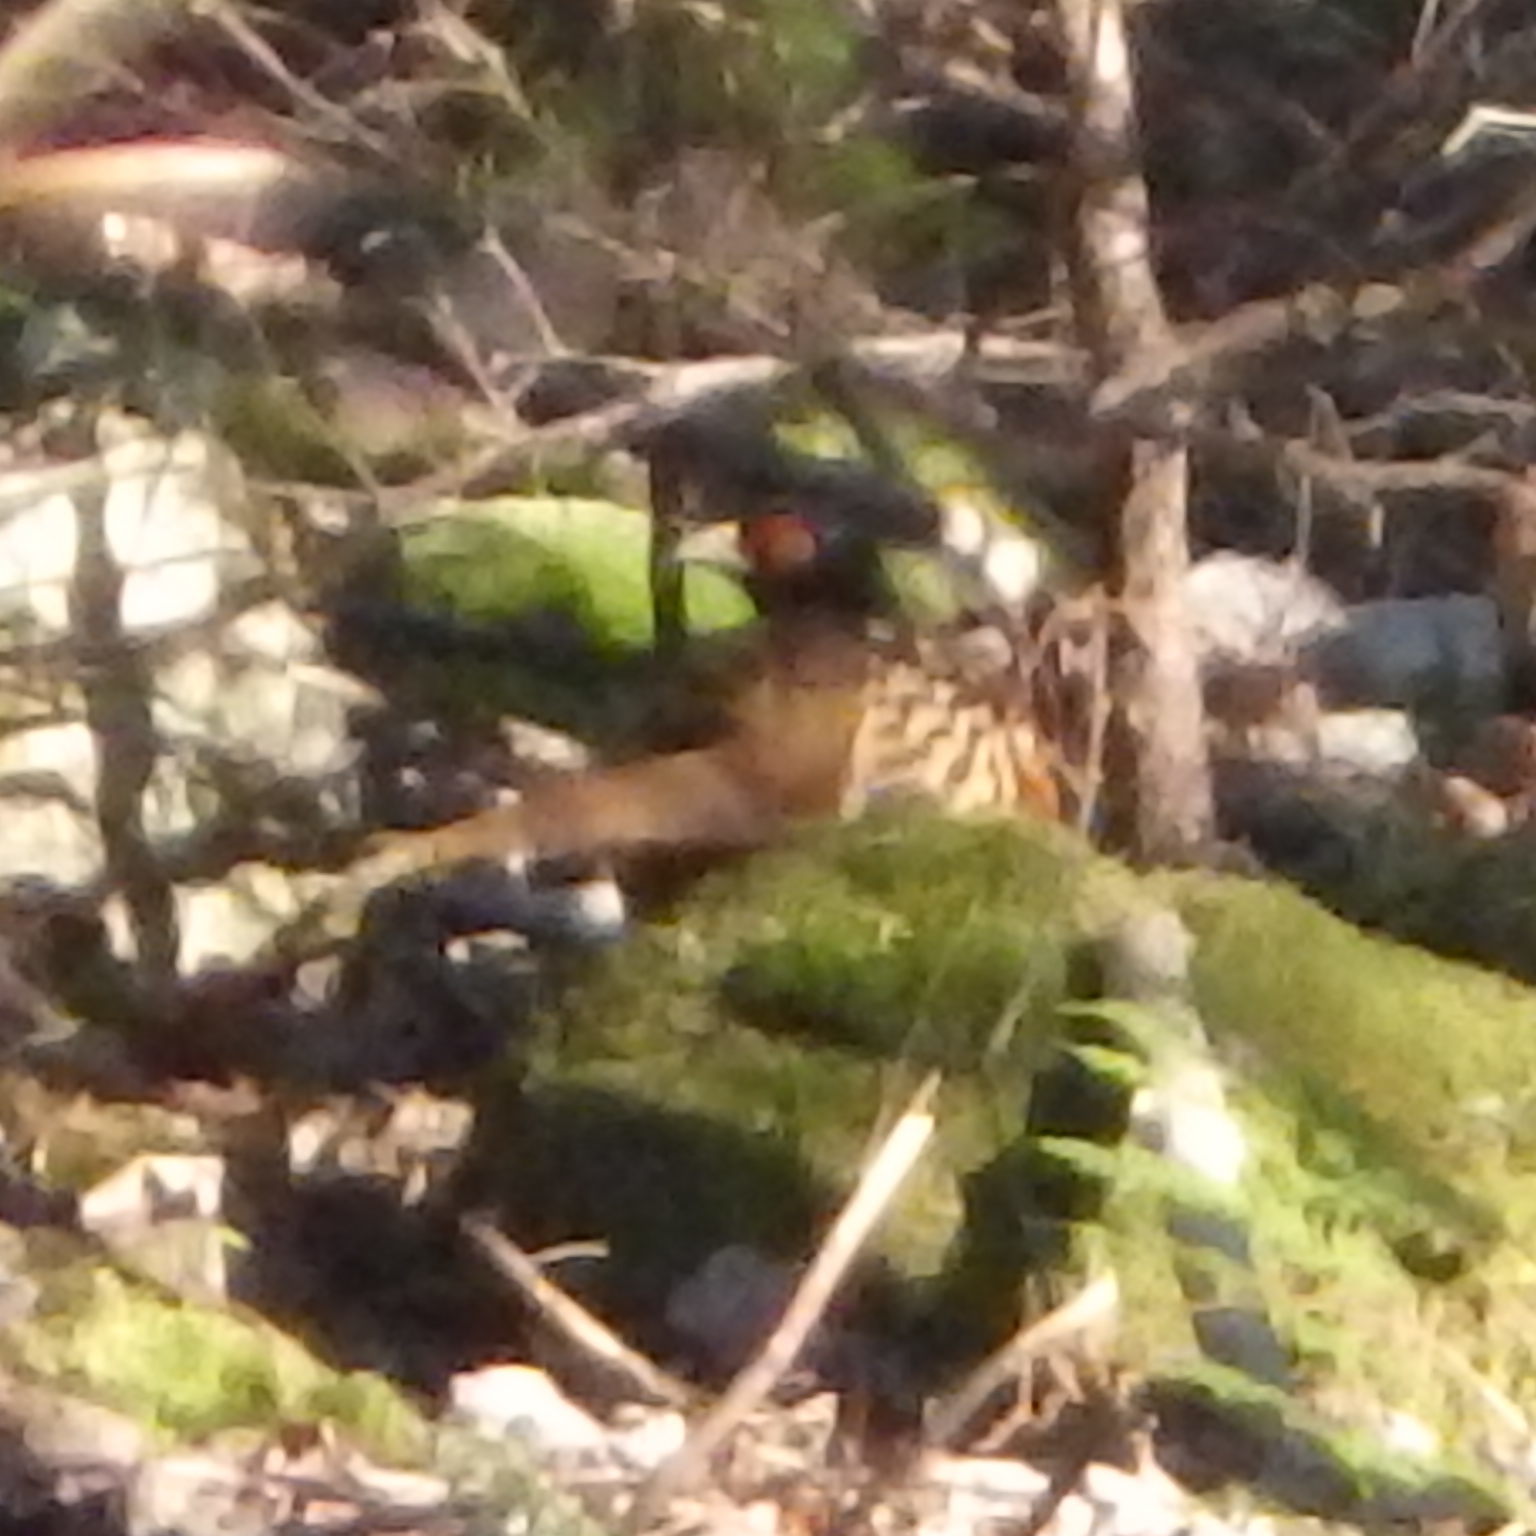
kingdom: Animalia
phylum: Chordata
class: Aves
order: Galliformes
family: Phasianidae
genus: Phasianus
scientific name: Phasianus colchicus
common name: Common pheasant
